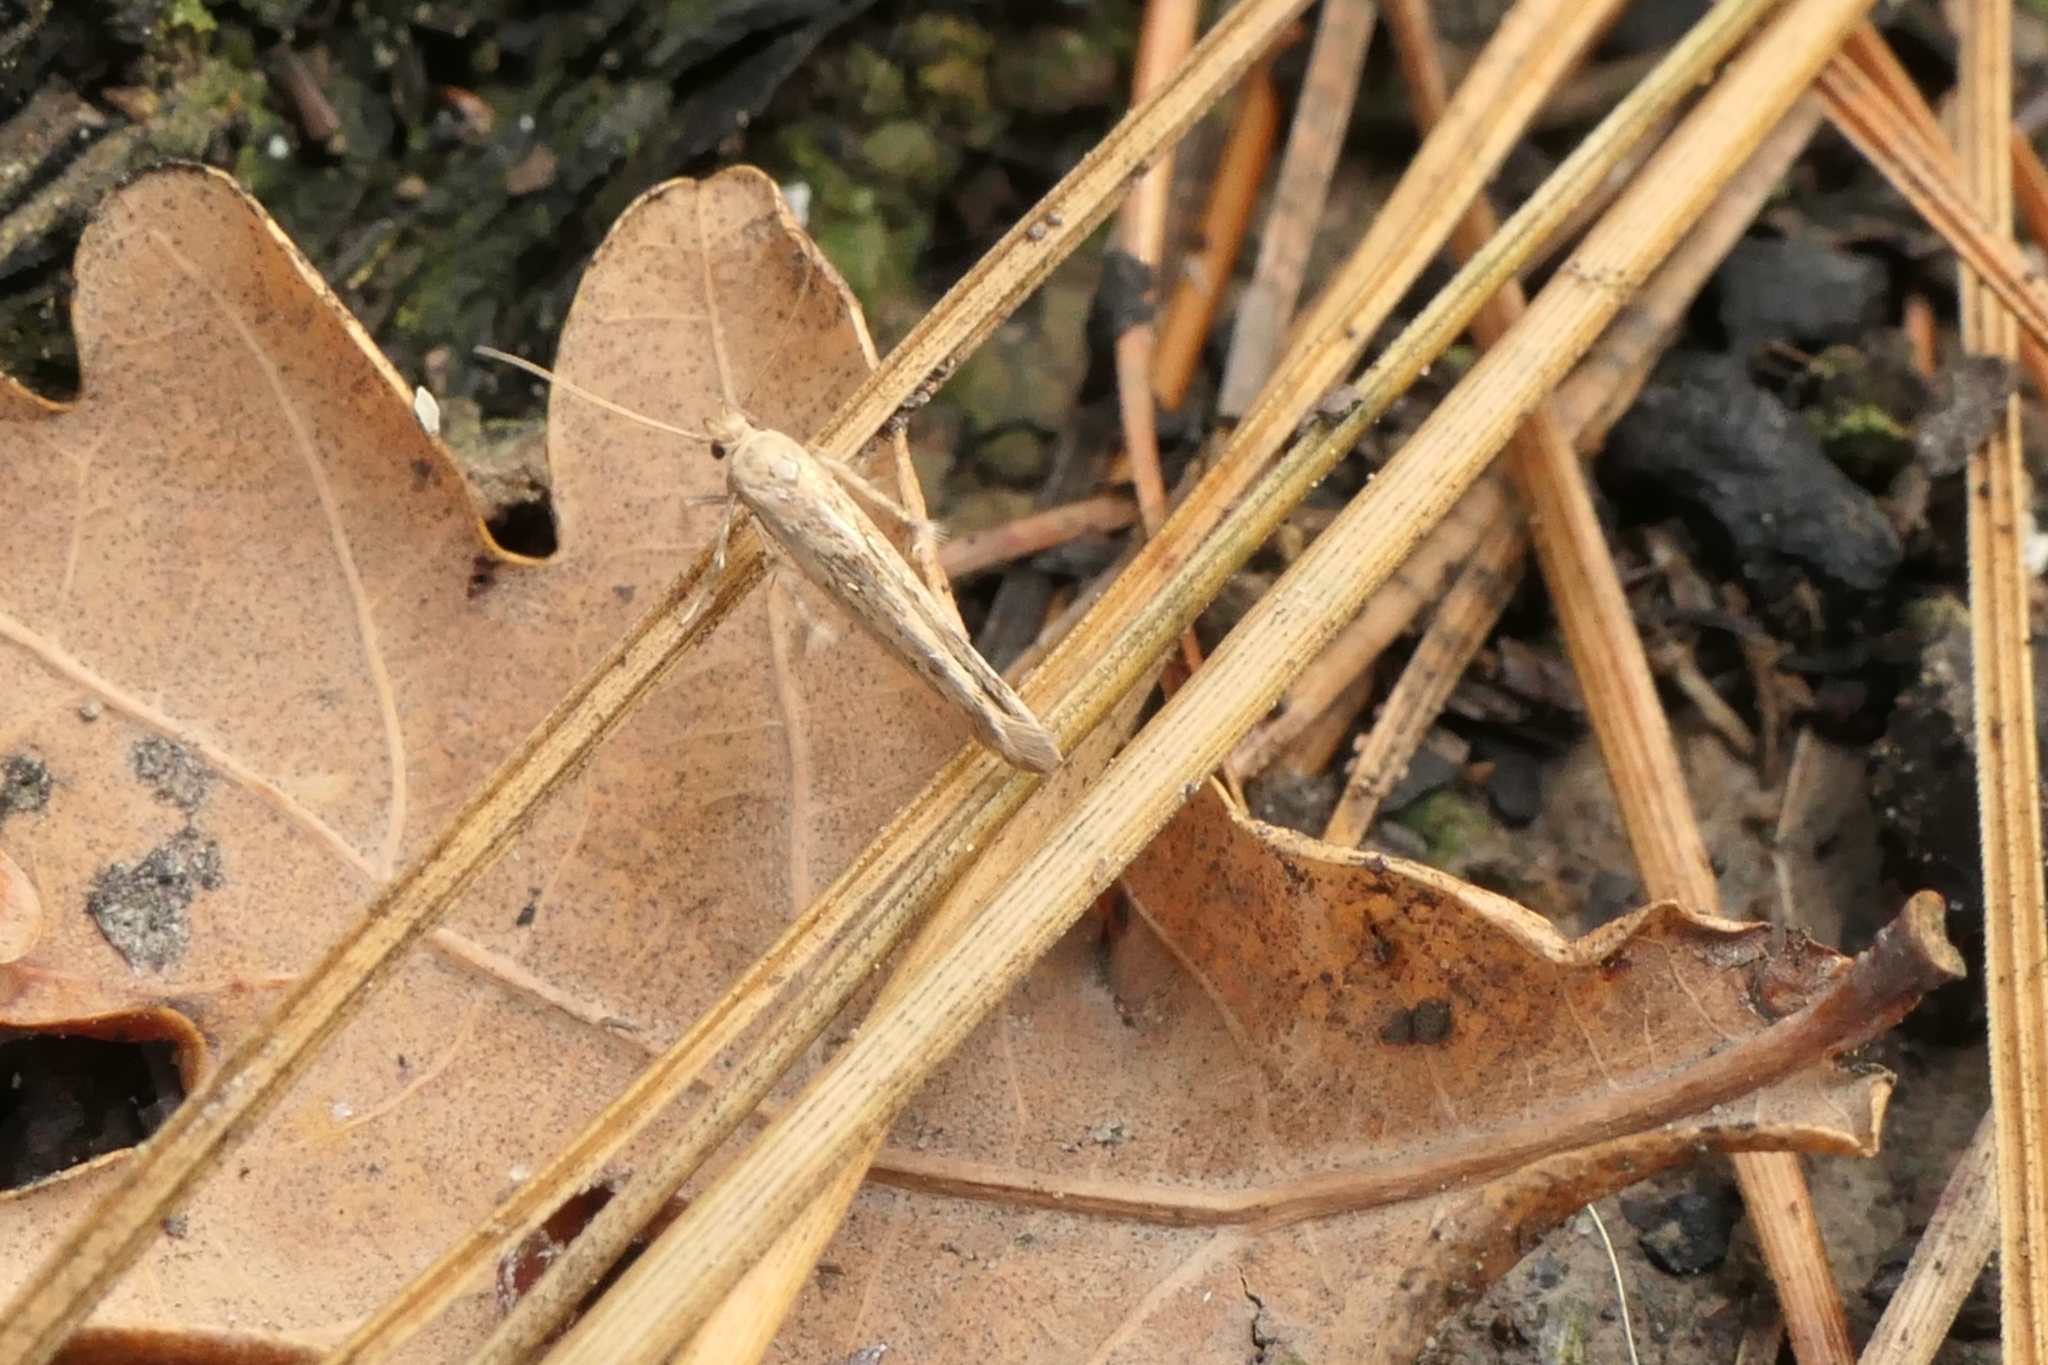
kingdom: Animalia
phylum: Arthropoda
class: Insecta
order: Lepidoptera
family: Stathmopodidae
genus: Stathmopoda
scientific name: Stathmopoda plumbiflua
